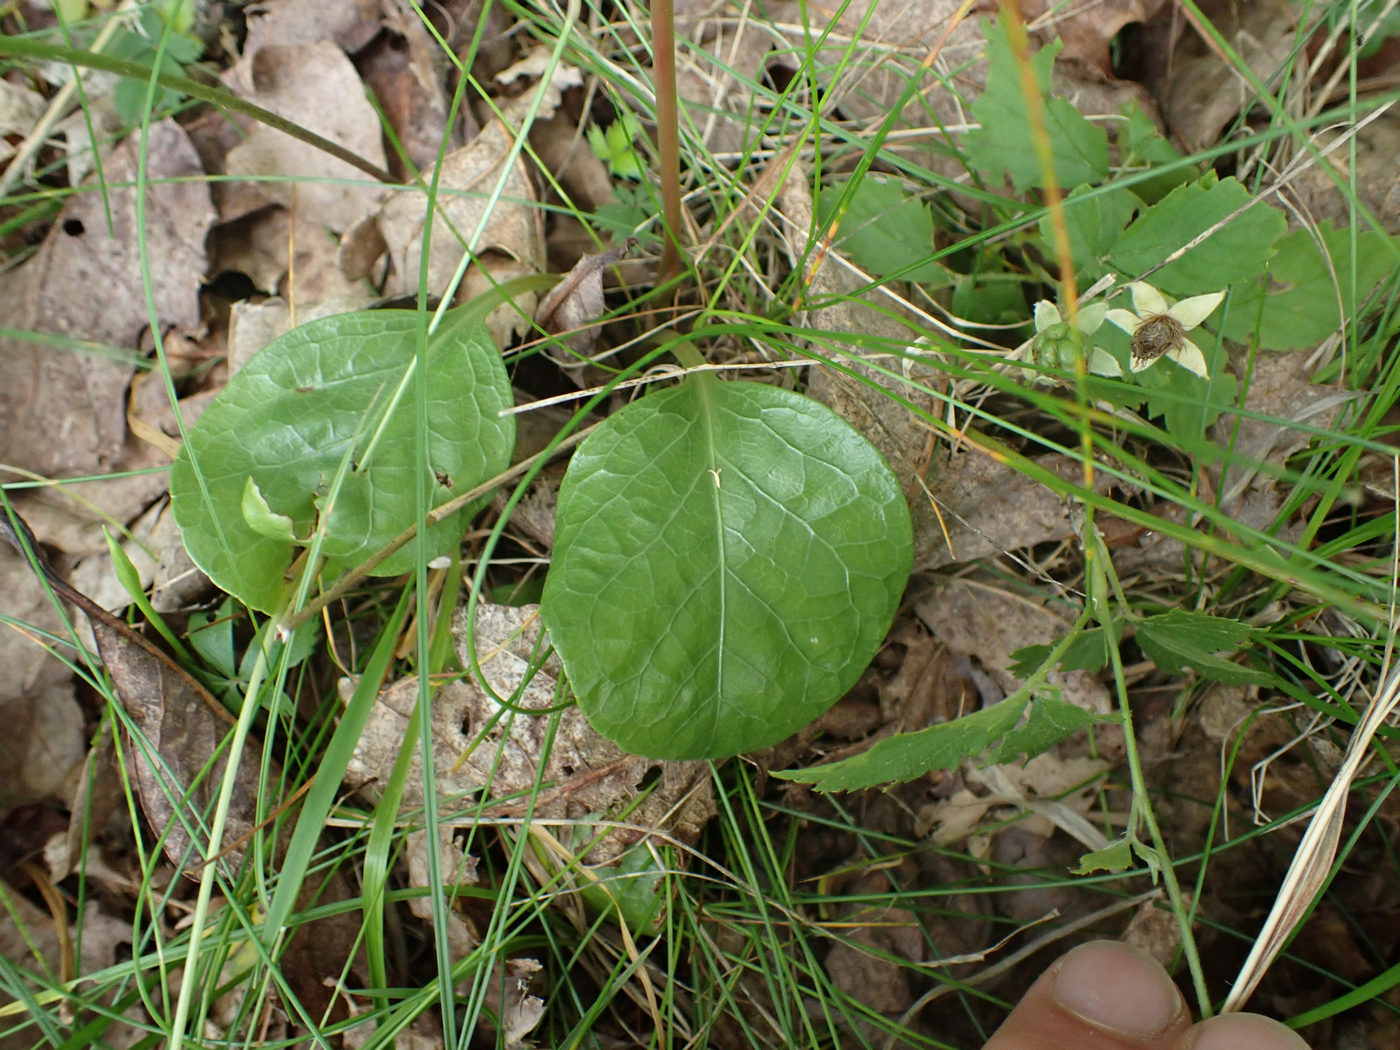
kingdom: Plantae
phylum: Tracheophyta
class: Magnoliopsida
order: Ericales
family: Ericaceae
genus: Pyrola
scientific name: Pyrola americana
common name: American wintergreen
